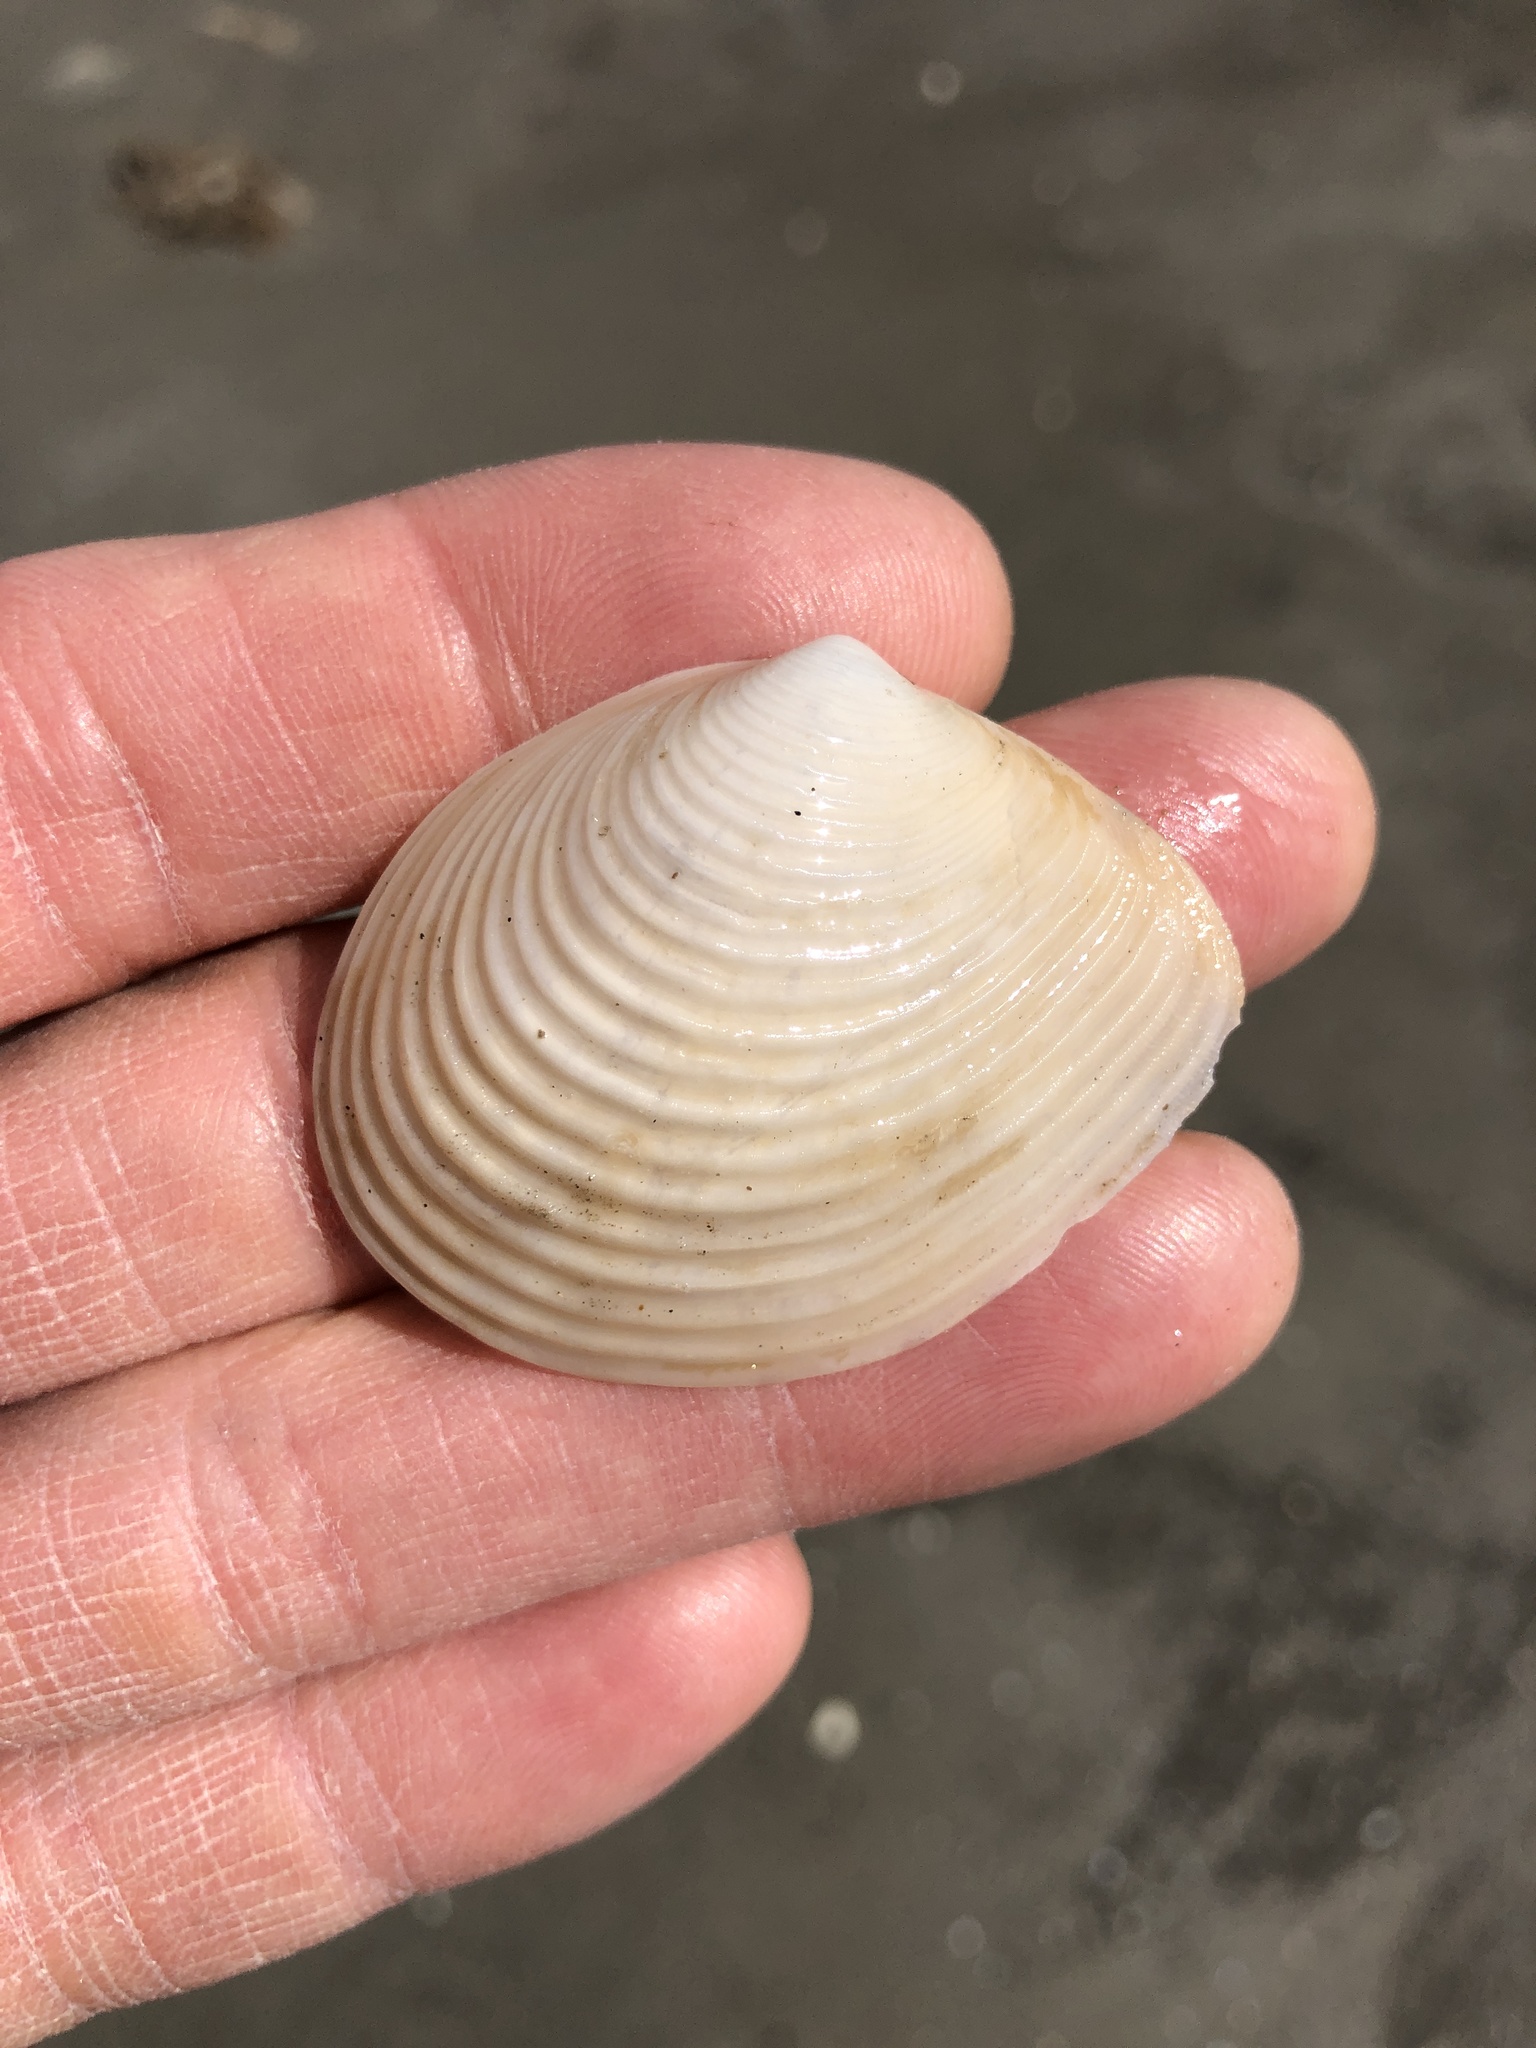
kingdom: Animalia
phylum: Mollusca
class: Bivalvia
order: Venerida
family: Anatinellidae
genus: Raeta
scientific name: Raeta plicatella
